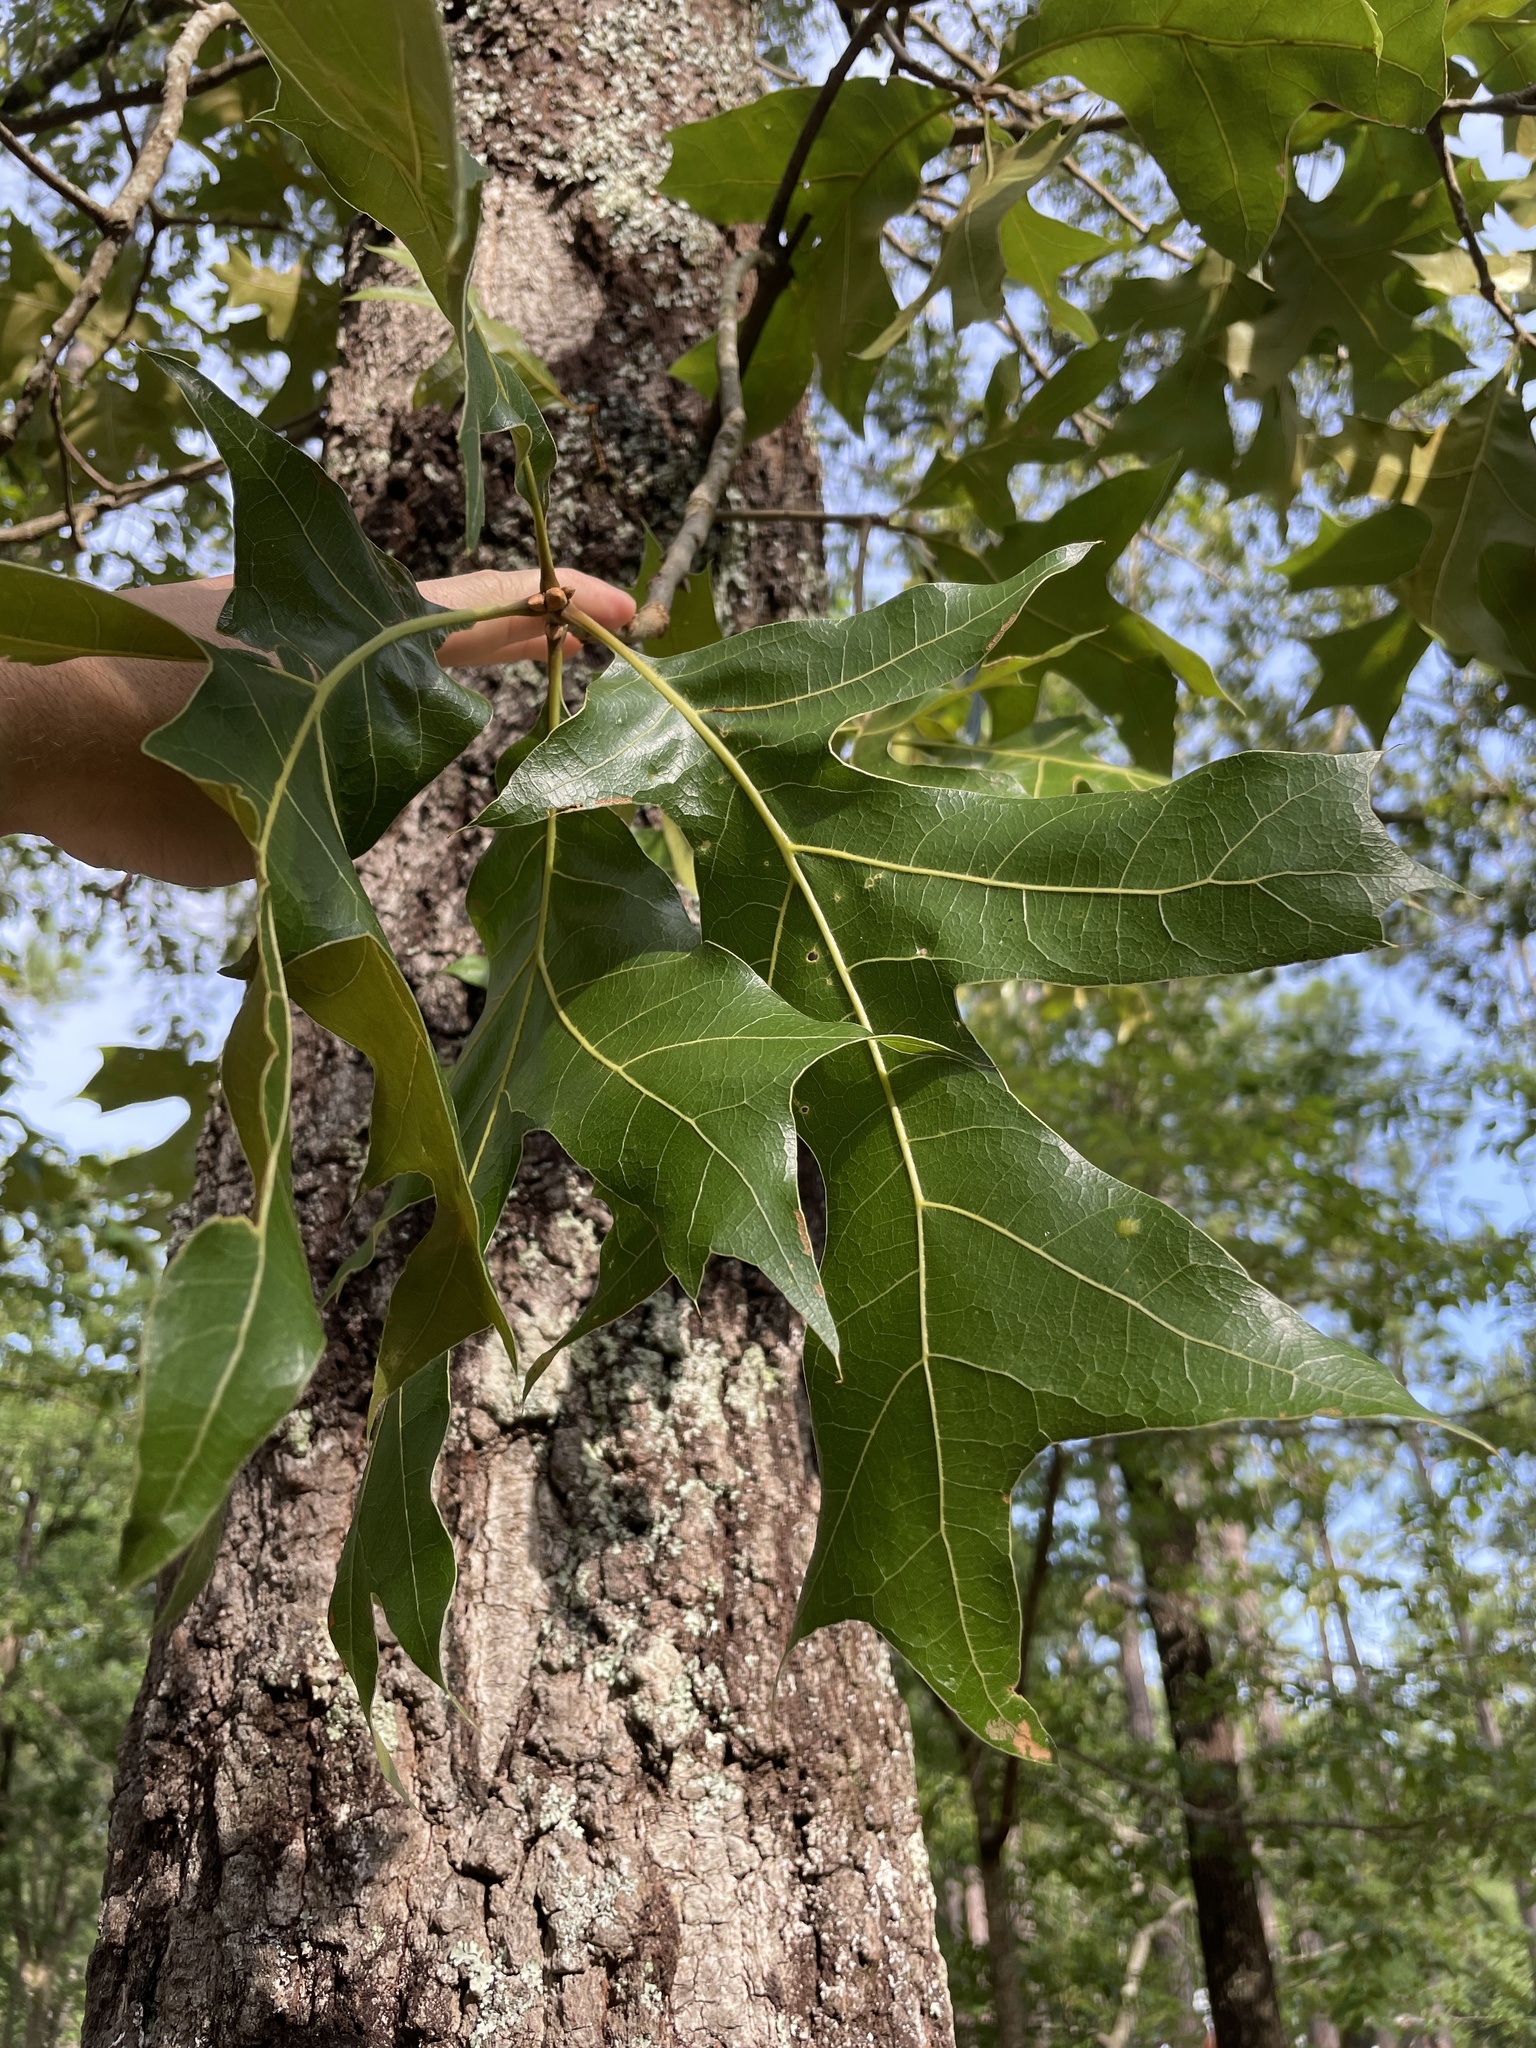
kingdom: Plantae
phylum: Tracheophyta
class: Magnoliopsida
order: Fagales
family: Fagaceae
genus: Quercus
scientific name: Quercus laevis
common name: Turkey oak
